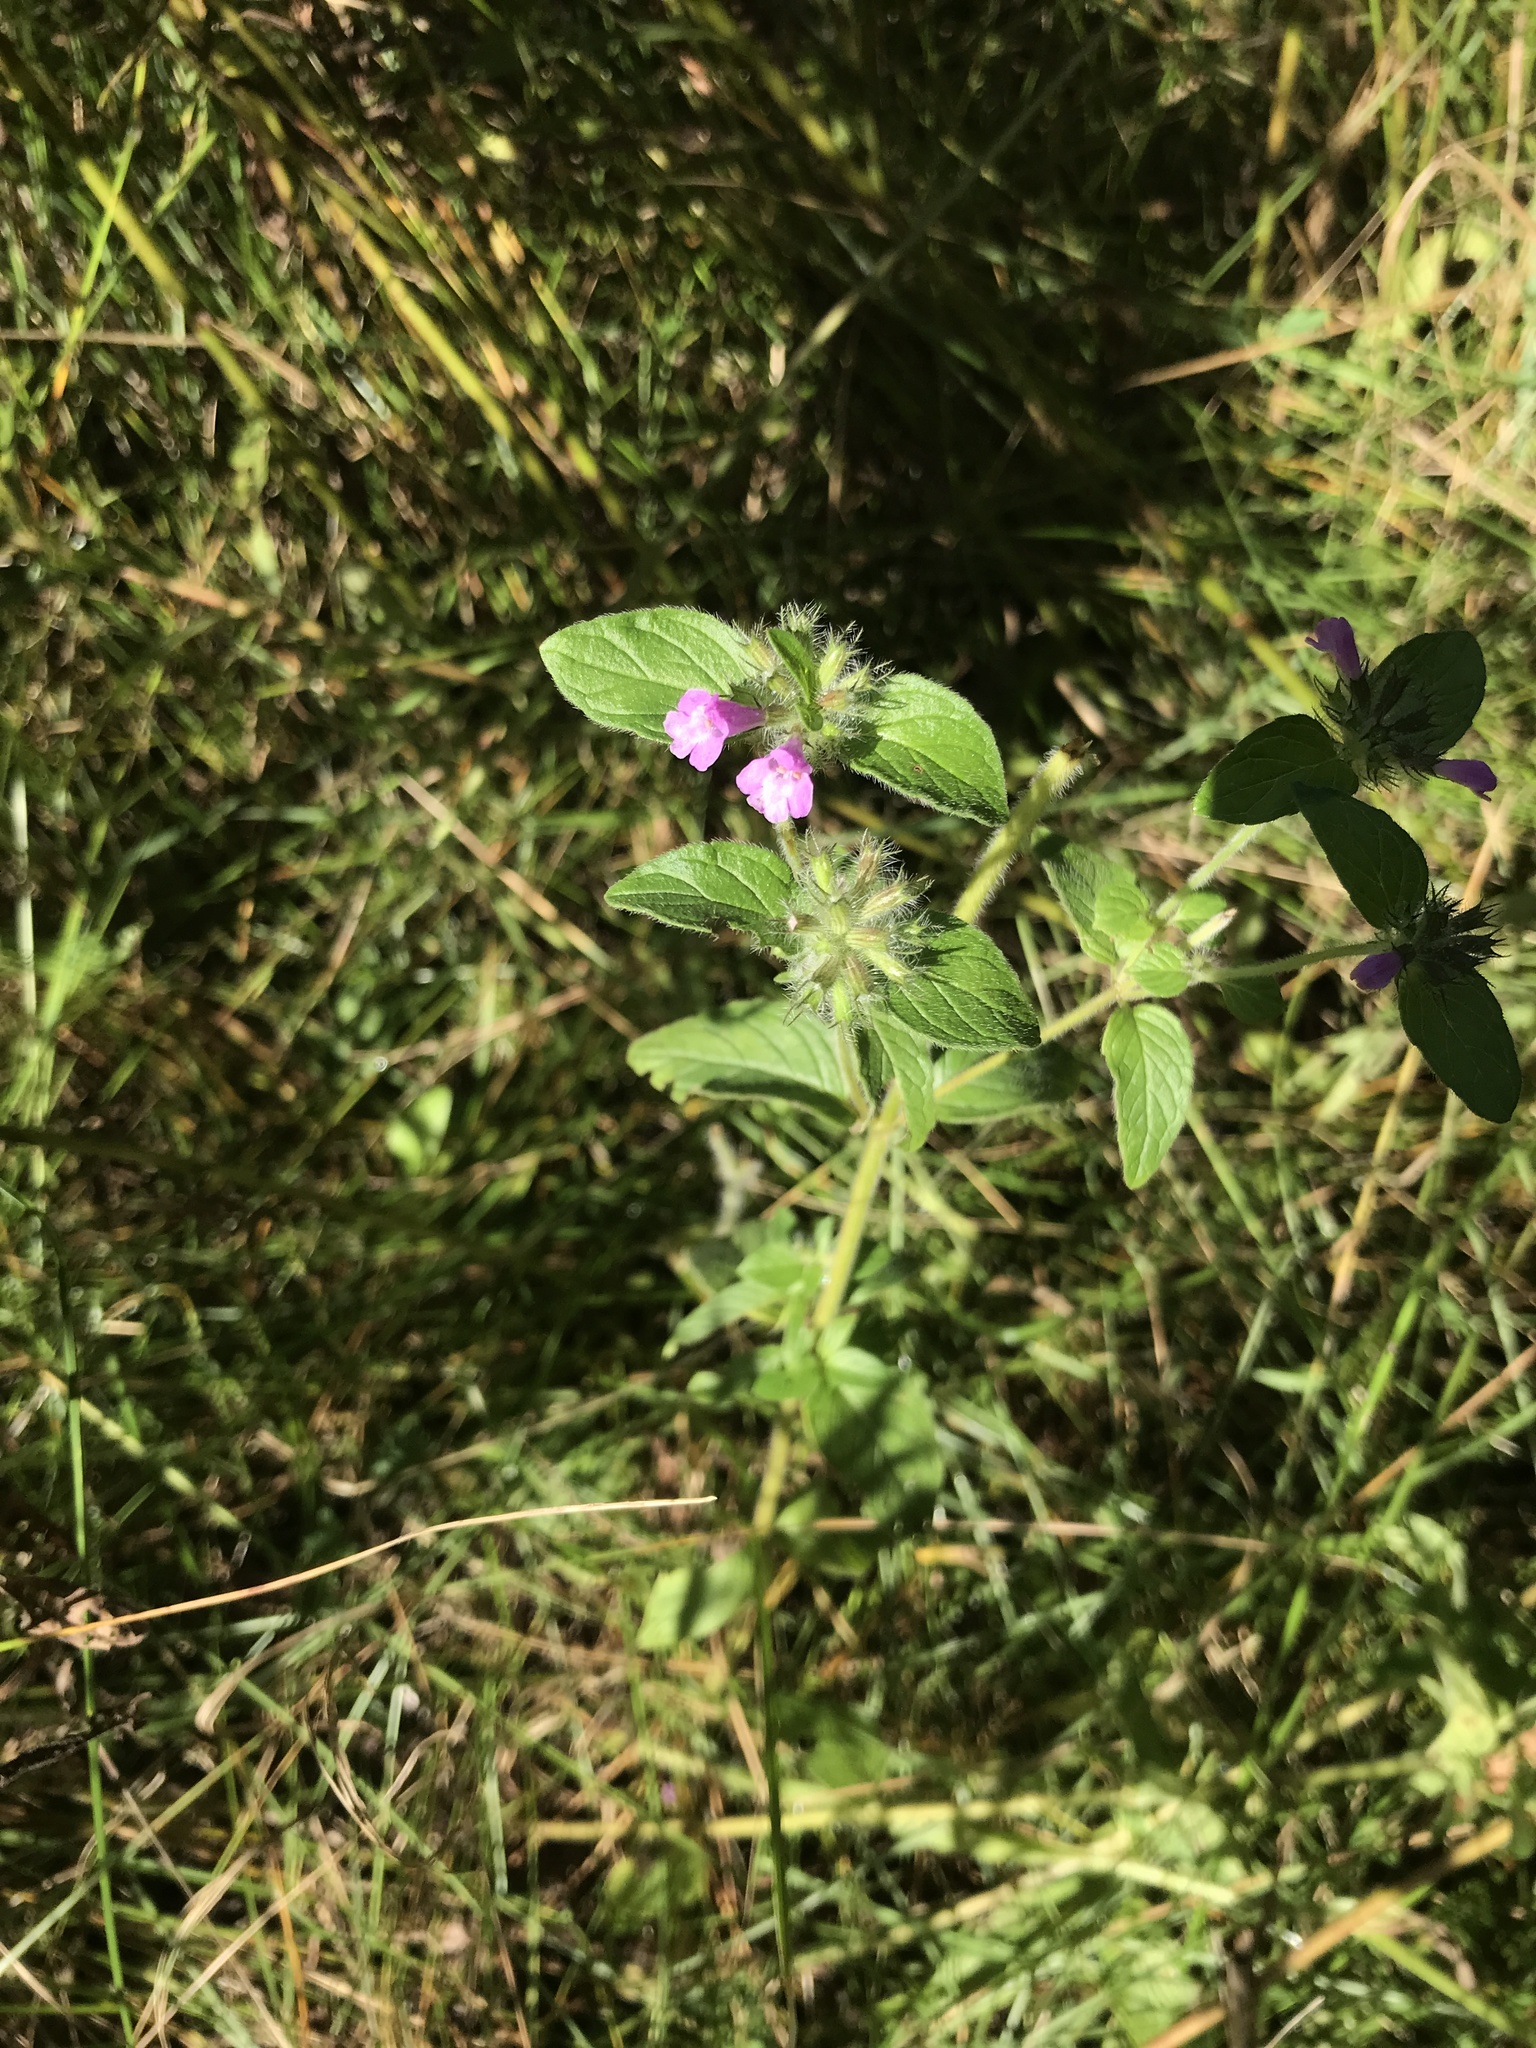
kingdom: Plantae
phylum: Tracheophyta
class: Magnoliopsida
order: Lamiales
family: Lamiaceae
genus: Clinopodium
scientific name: Clinopodium vulgare
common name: Wild basil
